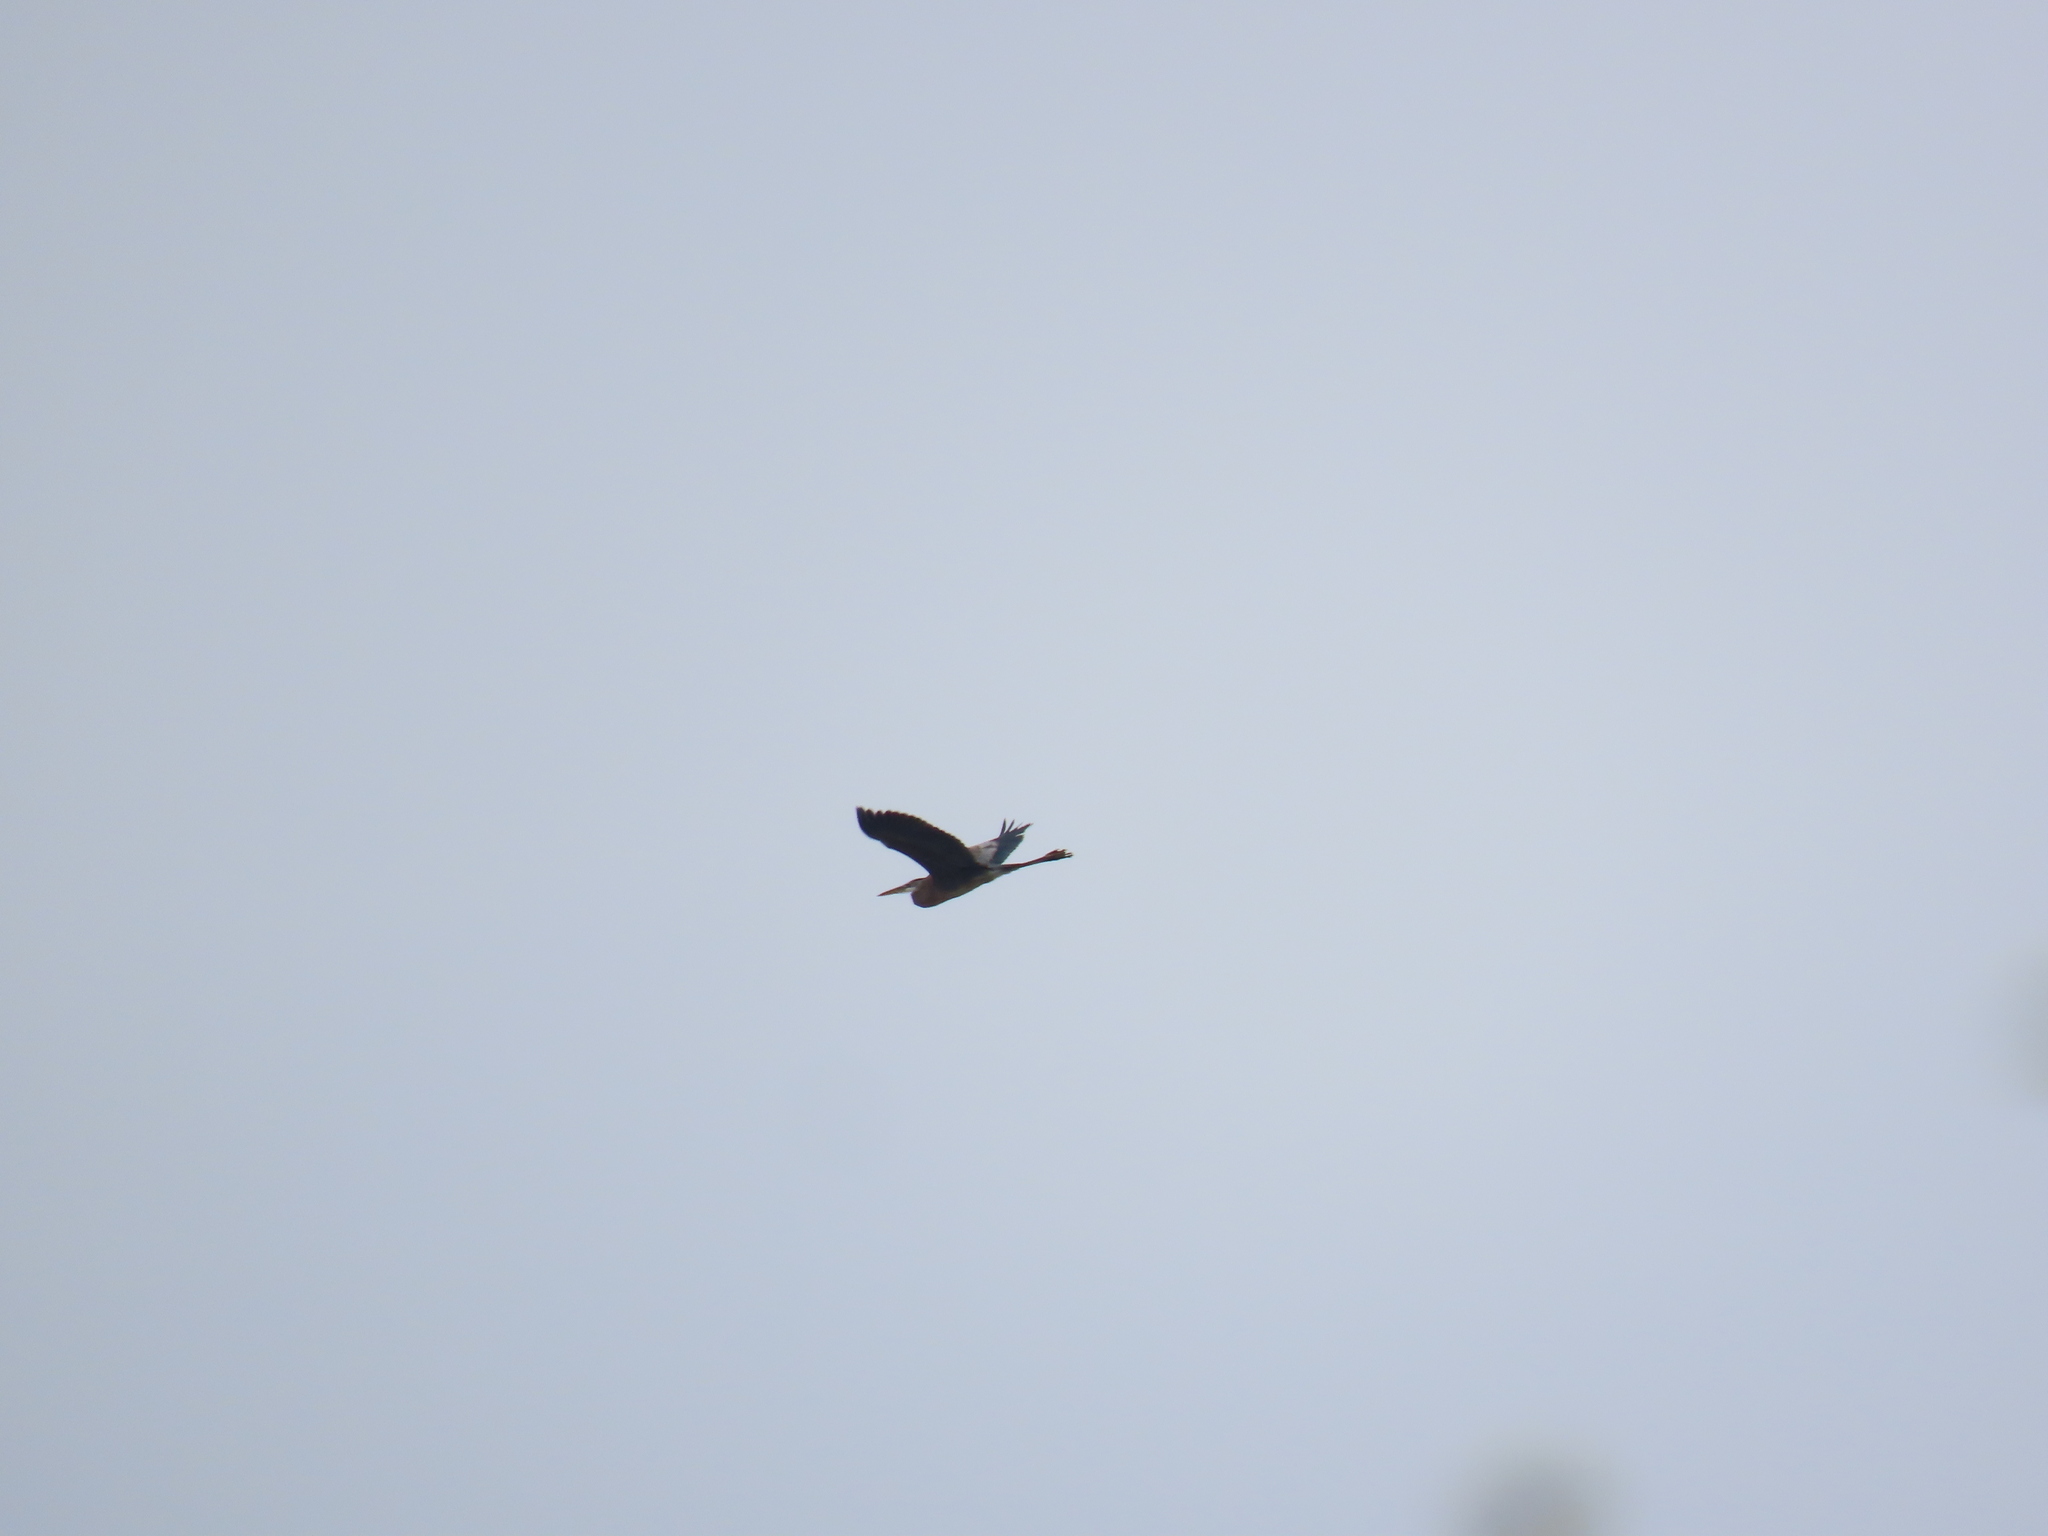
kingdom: Animalia
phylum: Chordata
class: Aves
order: Pelecaniformes
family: Ardeidae
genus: Ardea
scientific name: Ardea herodias
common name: Great blue heron
